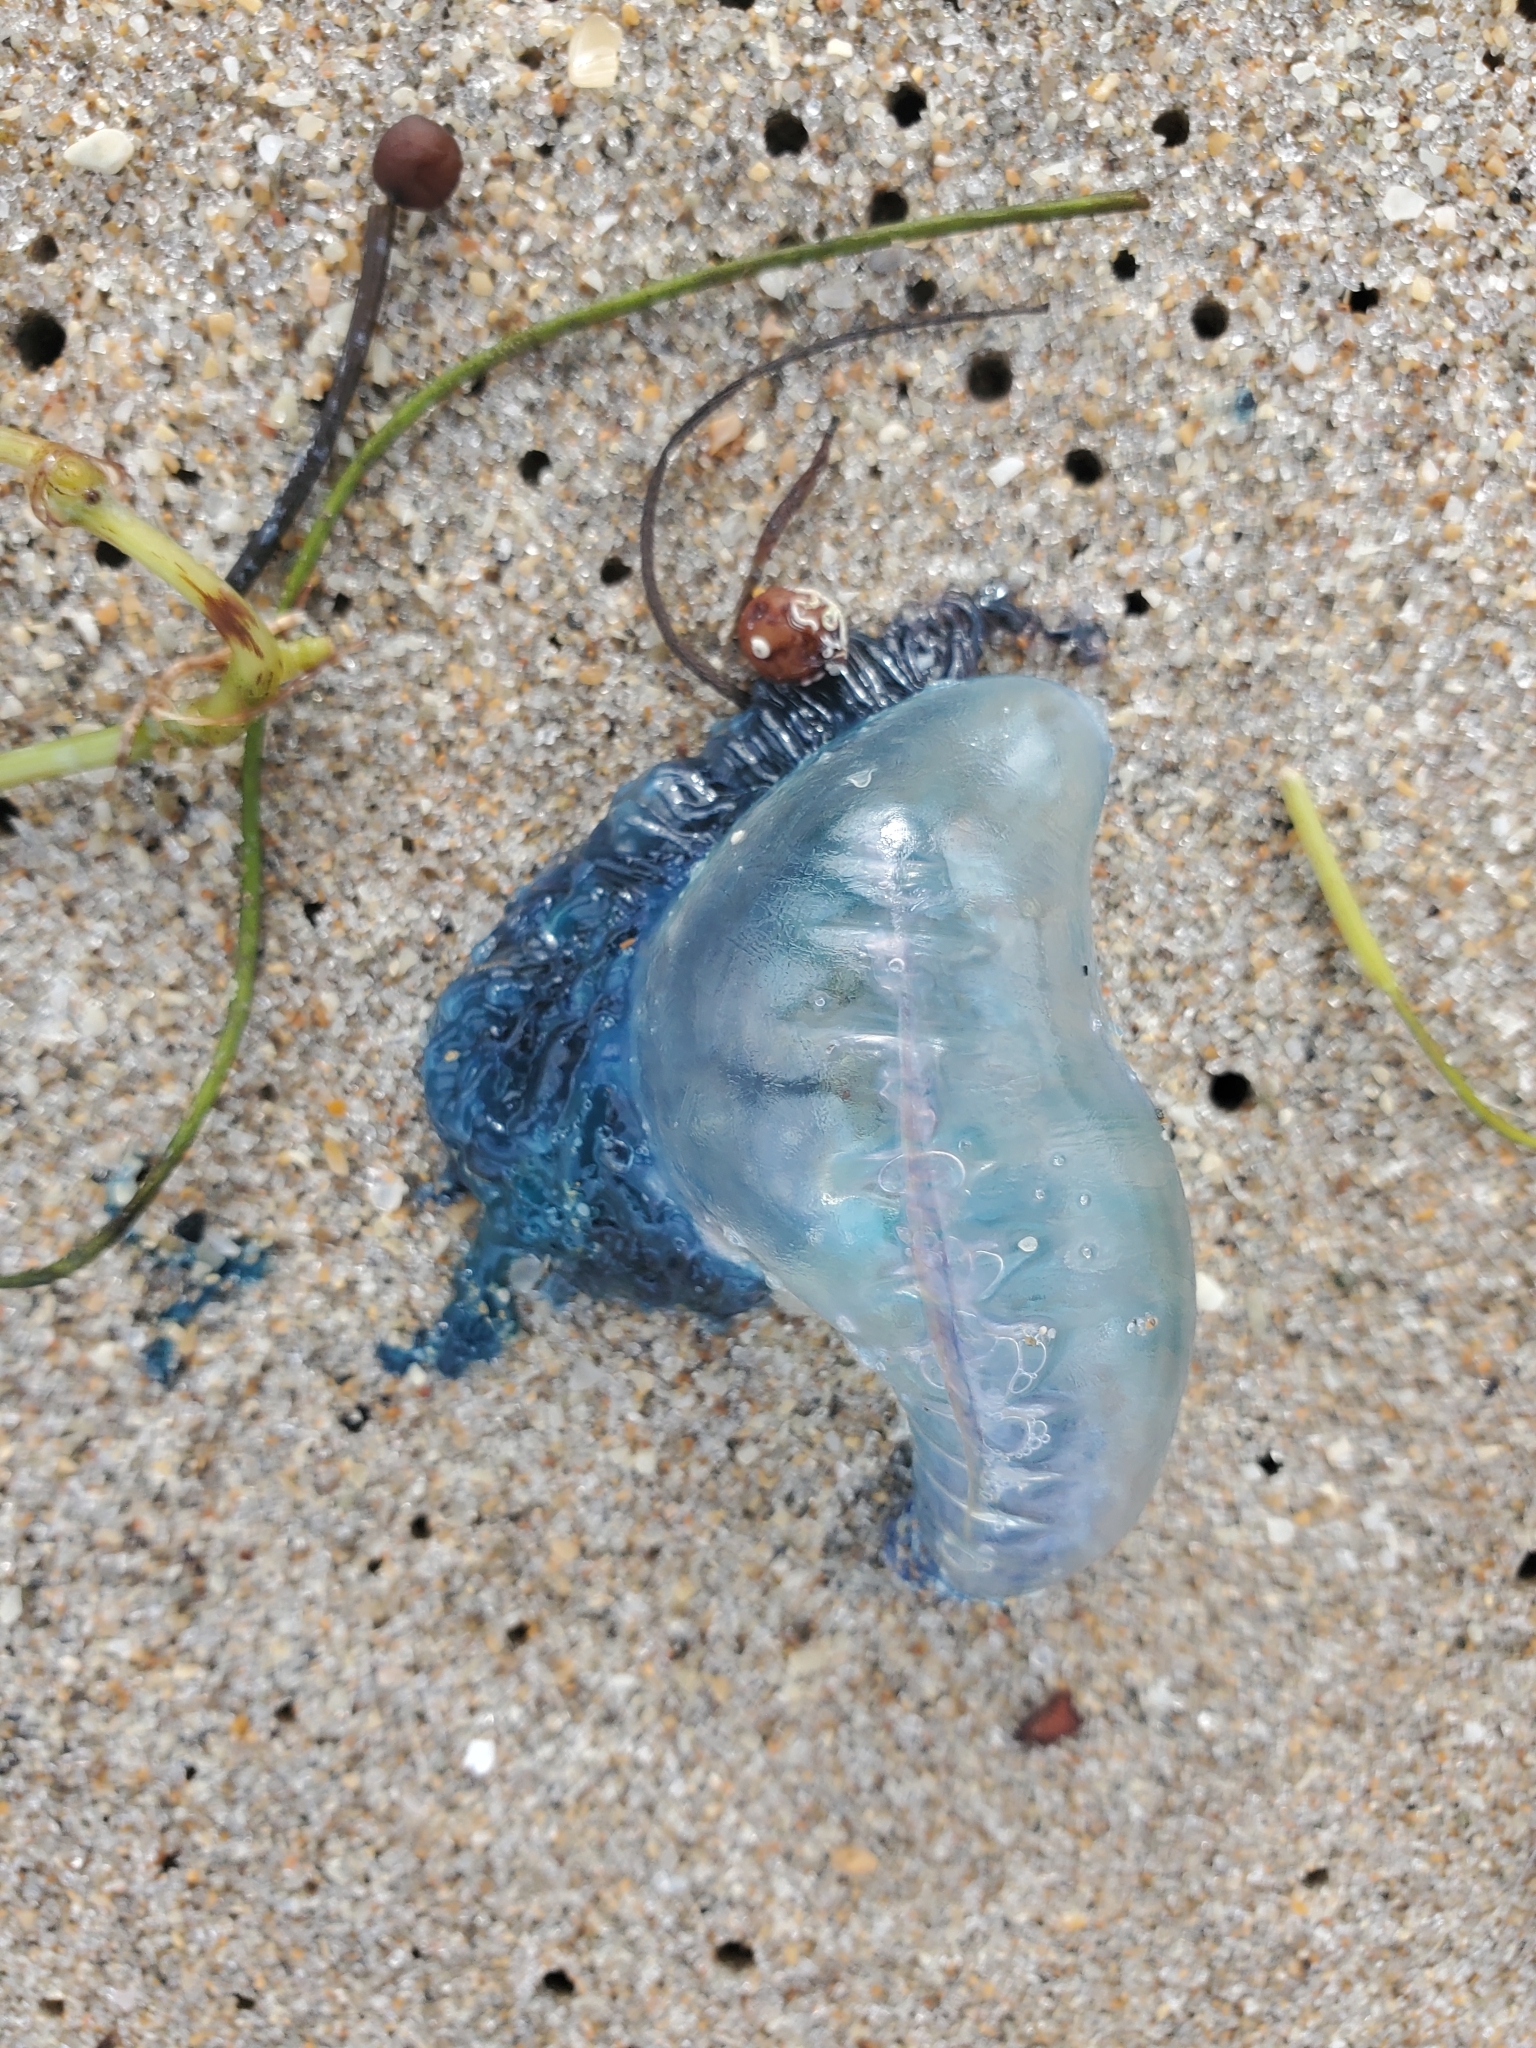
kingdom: Animalia
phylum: Cnidaria
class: Hydrozoa
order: Siphonophorae
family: Physaliidae
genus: Physalia
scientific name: Physalia physalis
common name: Portuguese man-of-war
